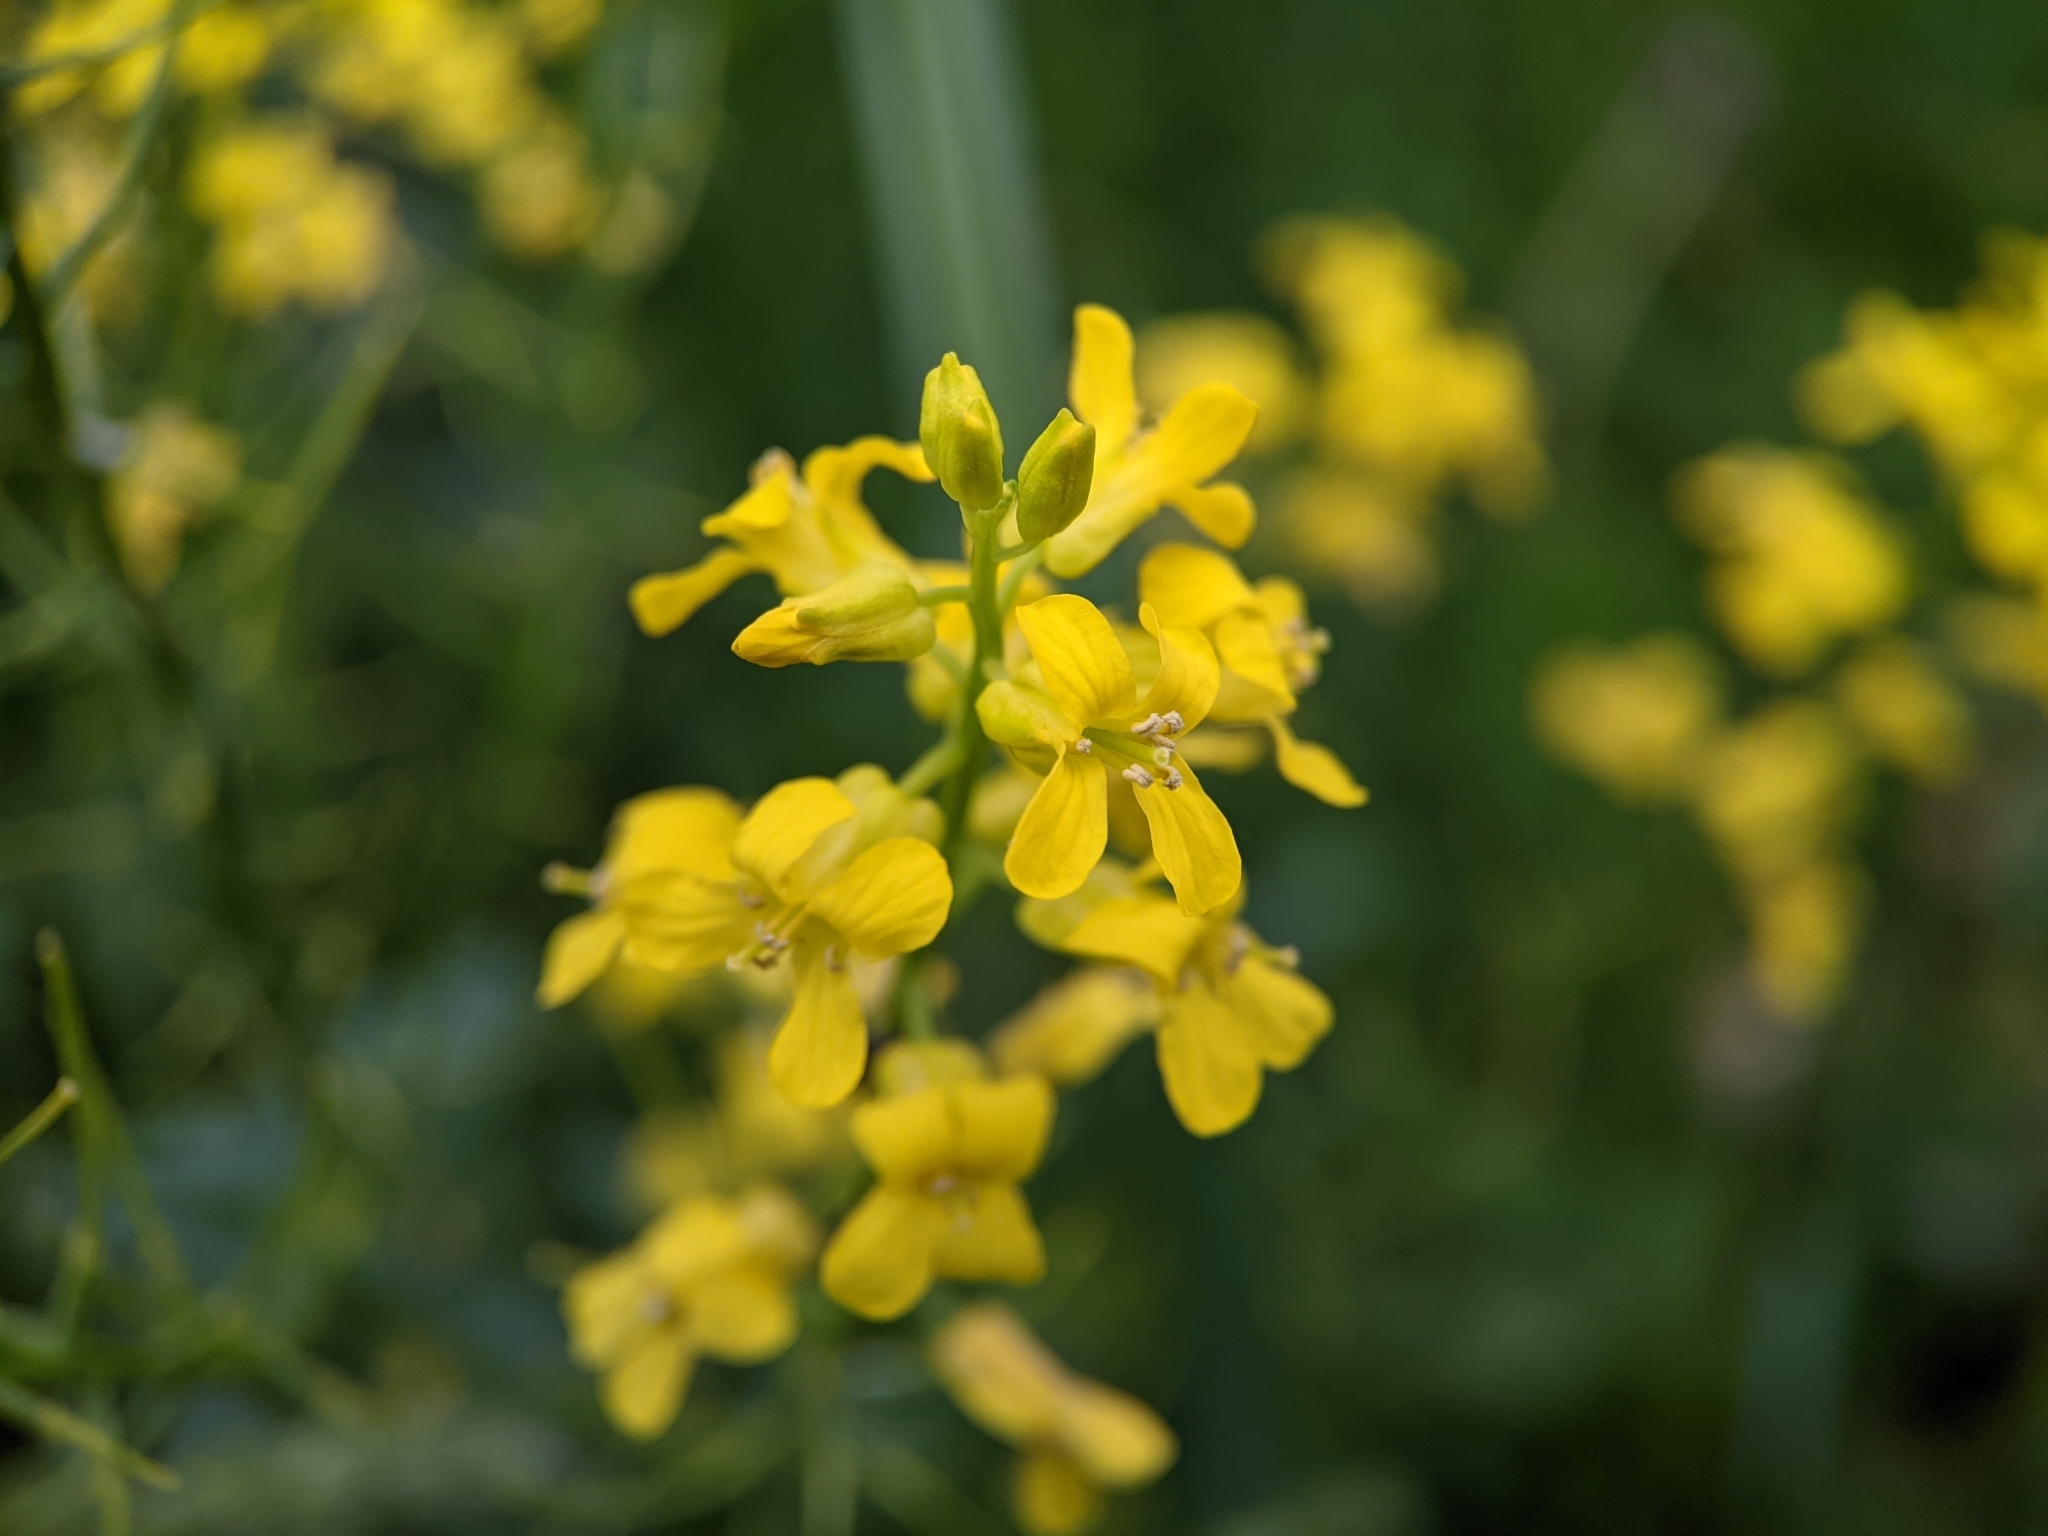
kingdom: Plantae
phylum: Tracheophyta
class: Magnoliopsida
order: Brassicales
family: Brassicaceae
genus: Barbarea
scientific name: Barbarea vulgaris
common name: Cressy-greens
